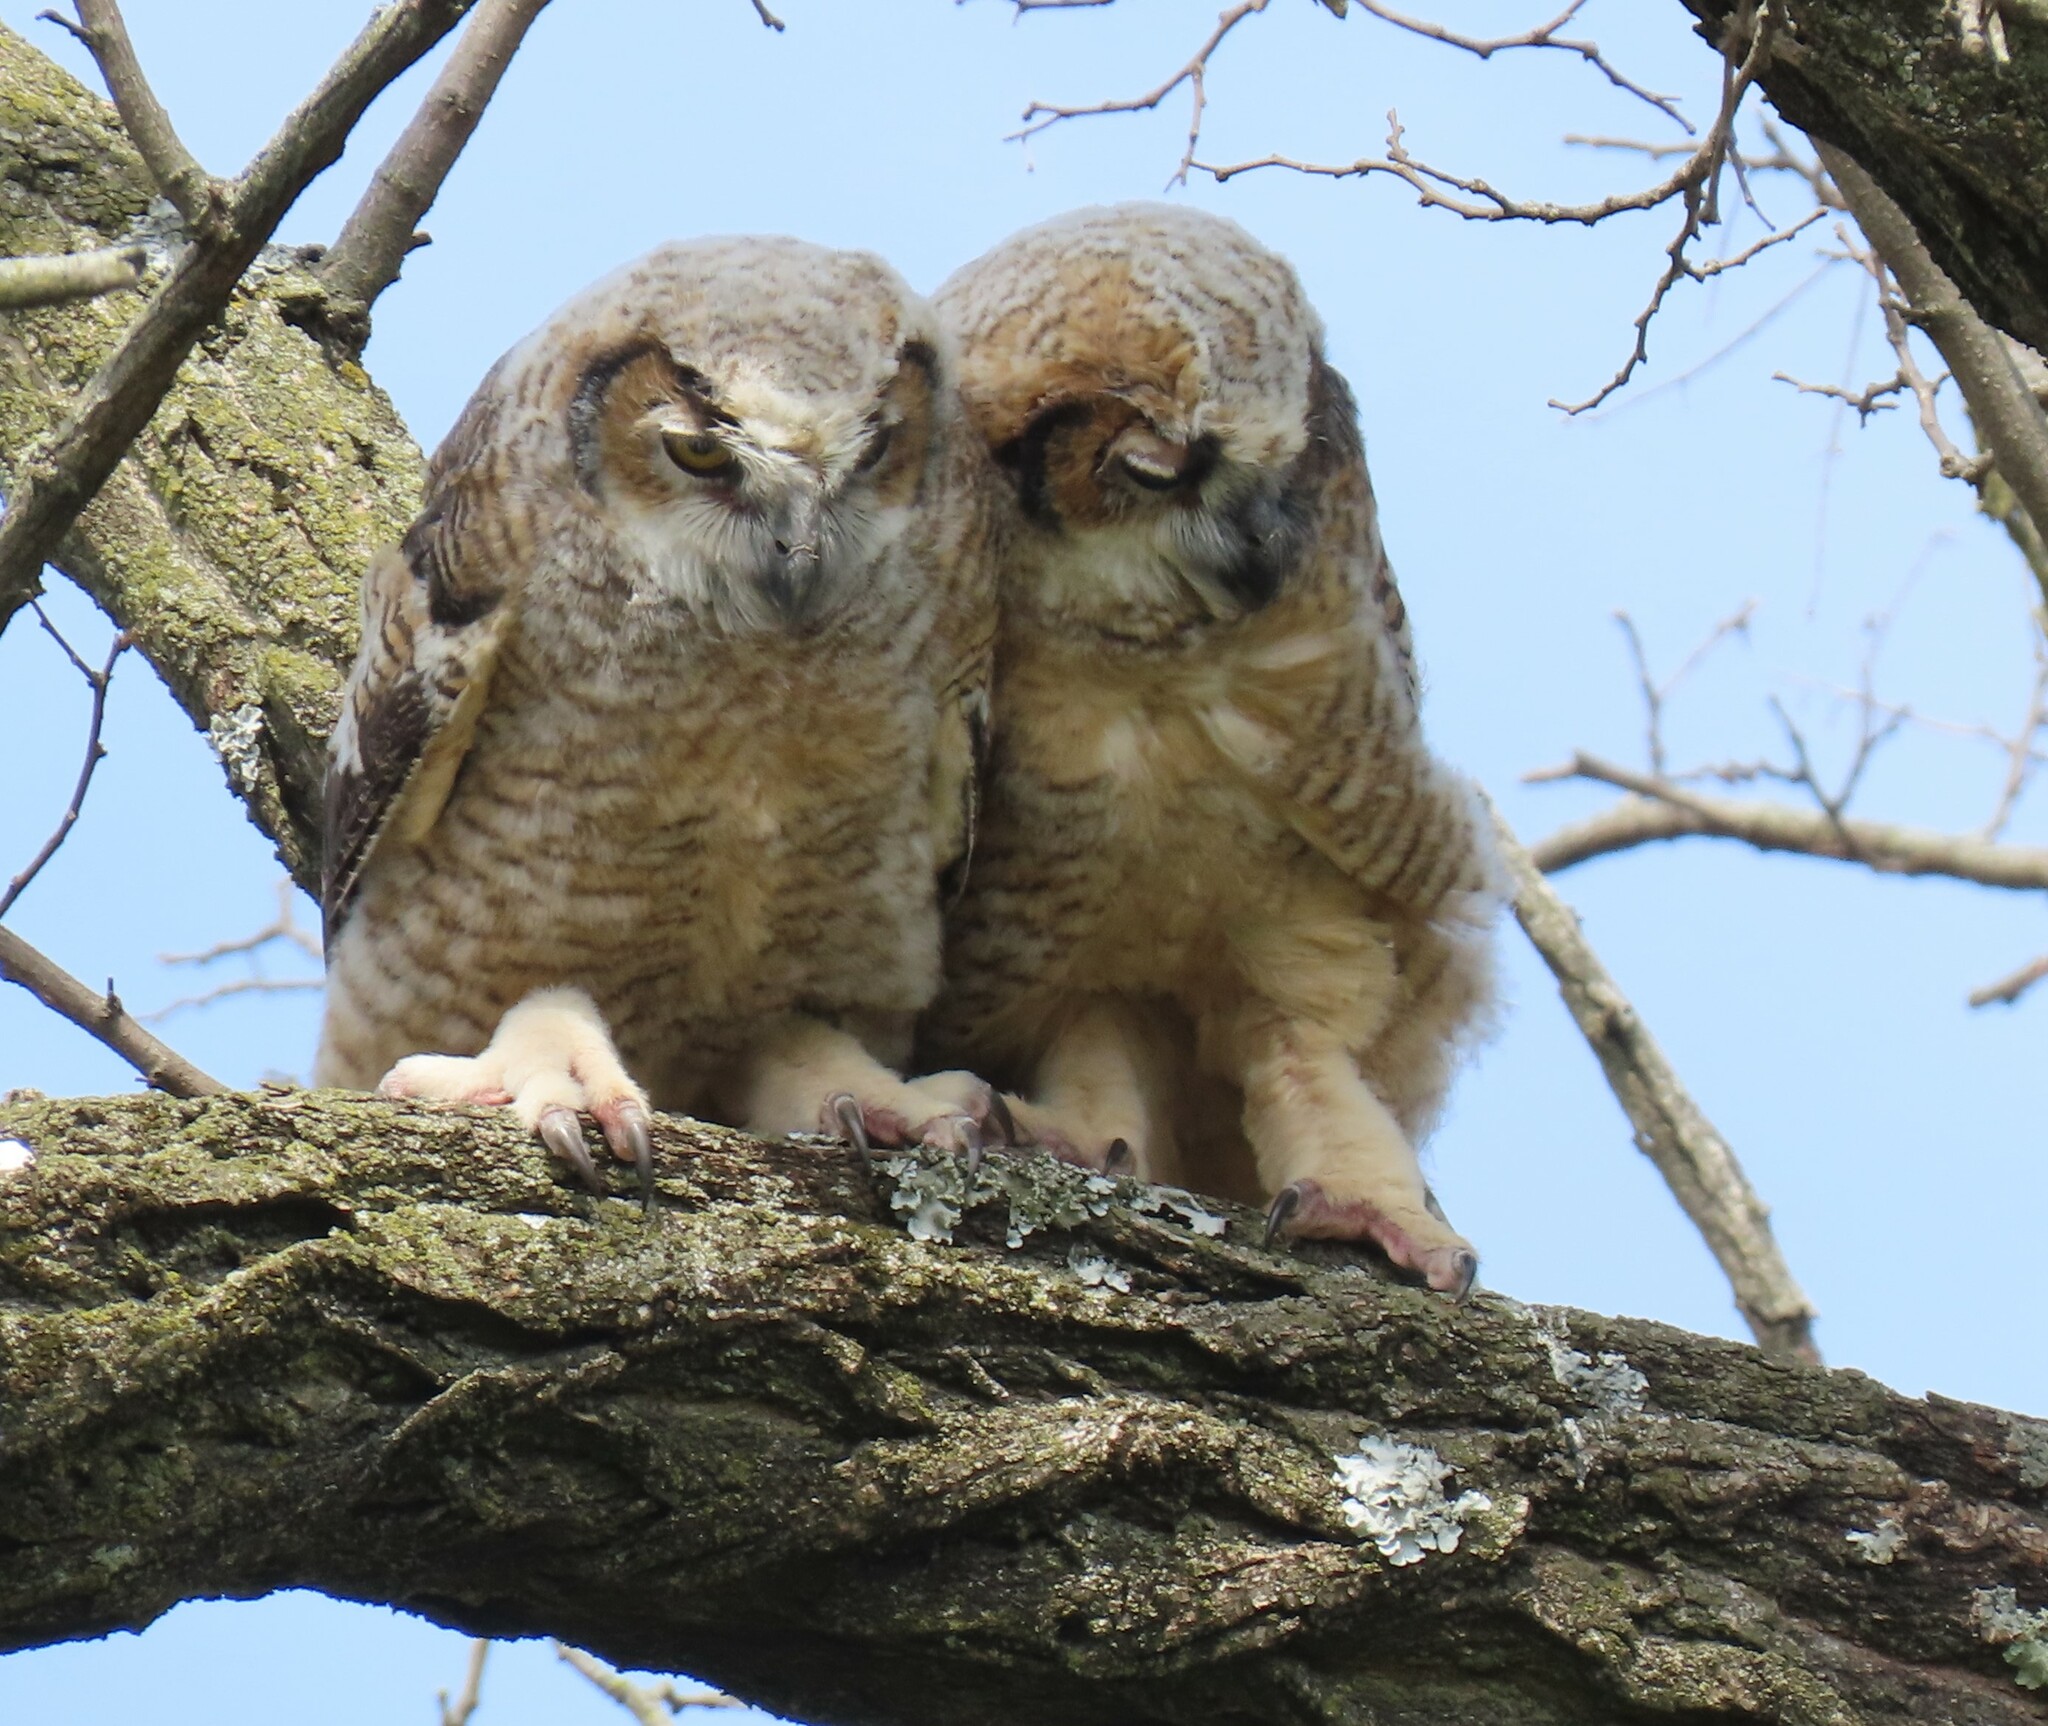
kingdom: Animalia
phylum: Chordata
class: Aves
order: Strigiformes
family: Strigidae
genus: Bubo
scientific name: Bubo virginianus
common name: Great horned owl
